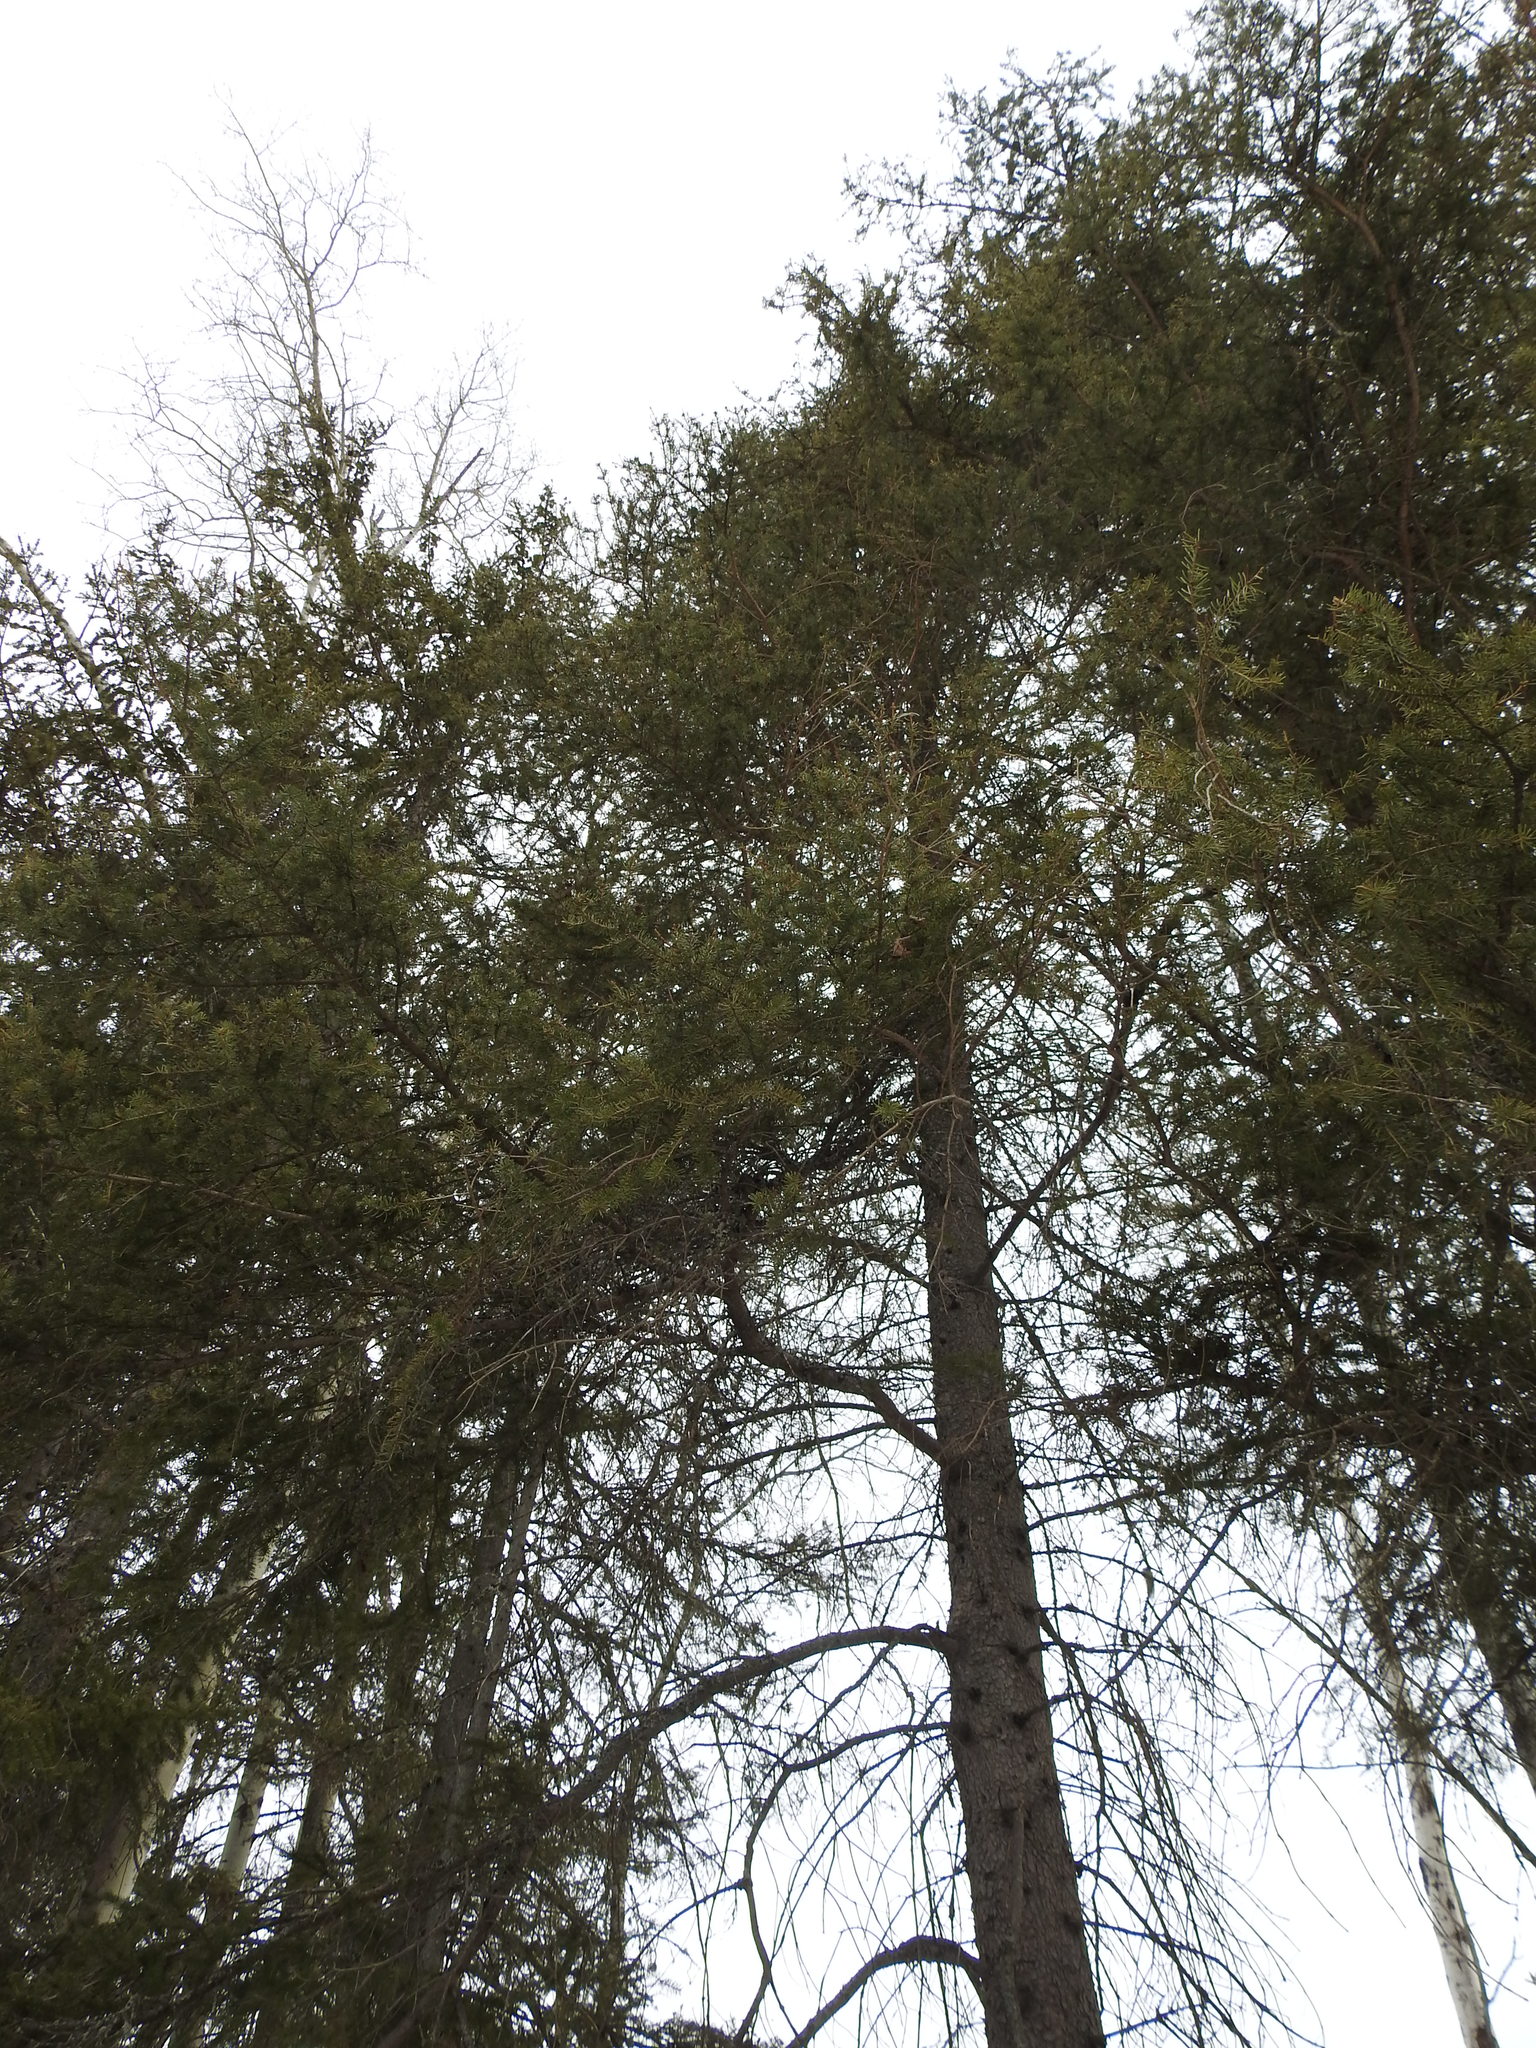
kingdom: Plantae
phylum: Tracheophyta
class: Pinopsida
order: Pinales
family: Pinaceae
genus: Picea
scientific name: Picea glauca
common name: White spruce
